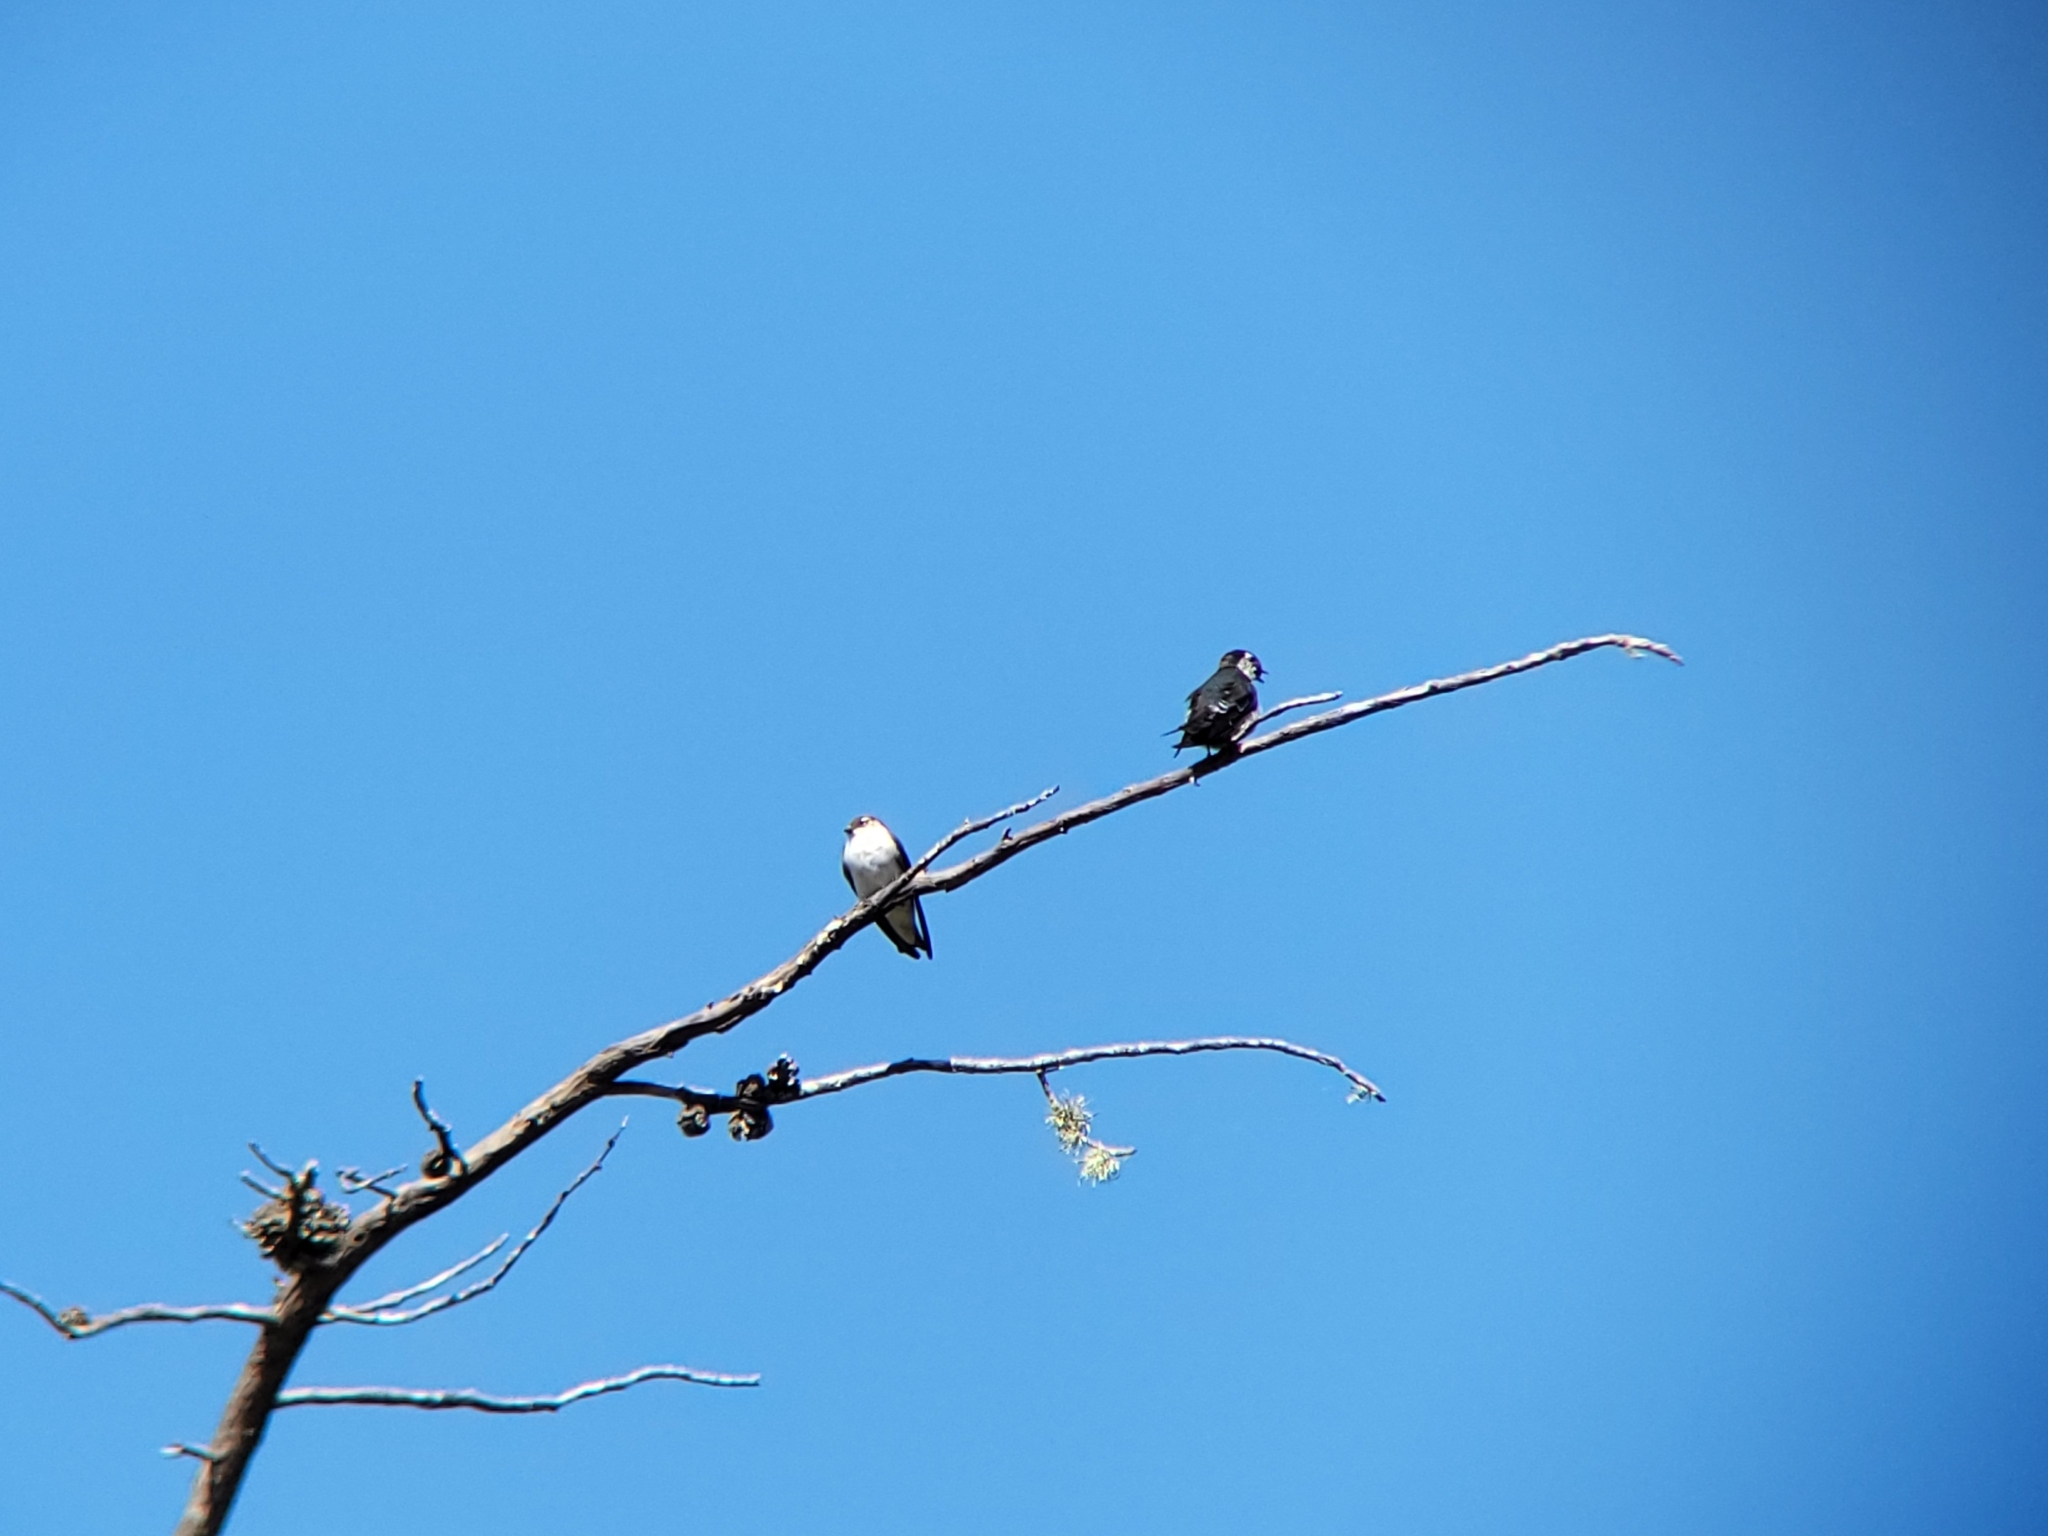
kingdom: Animalia
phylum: Chordata
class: Aves
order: Passeriformes
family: Hirundinidae
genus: Tachycineta
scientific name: Tachycineta thalassina
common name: Violet-green swallow
